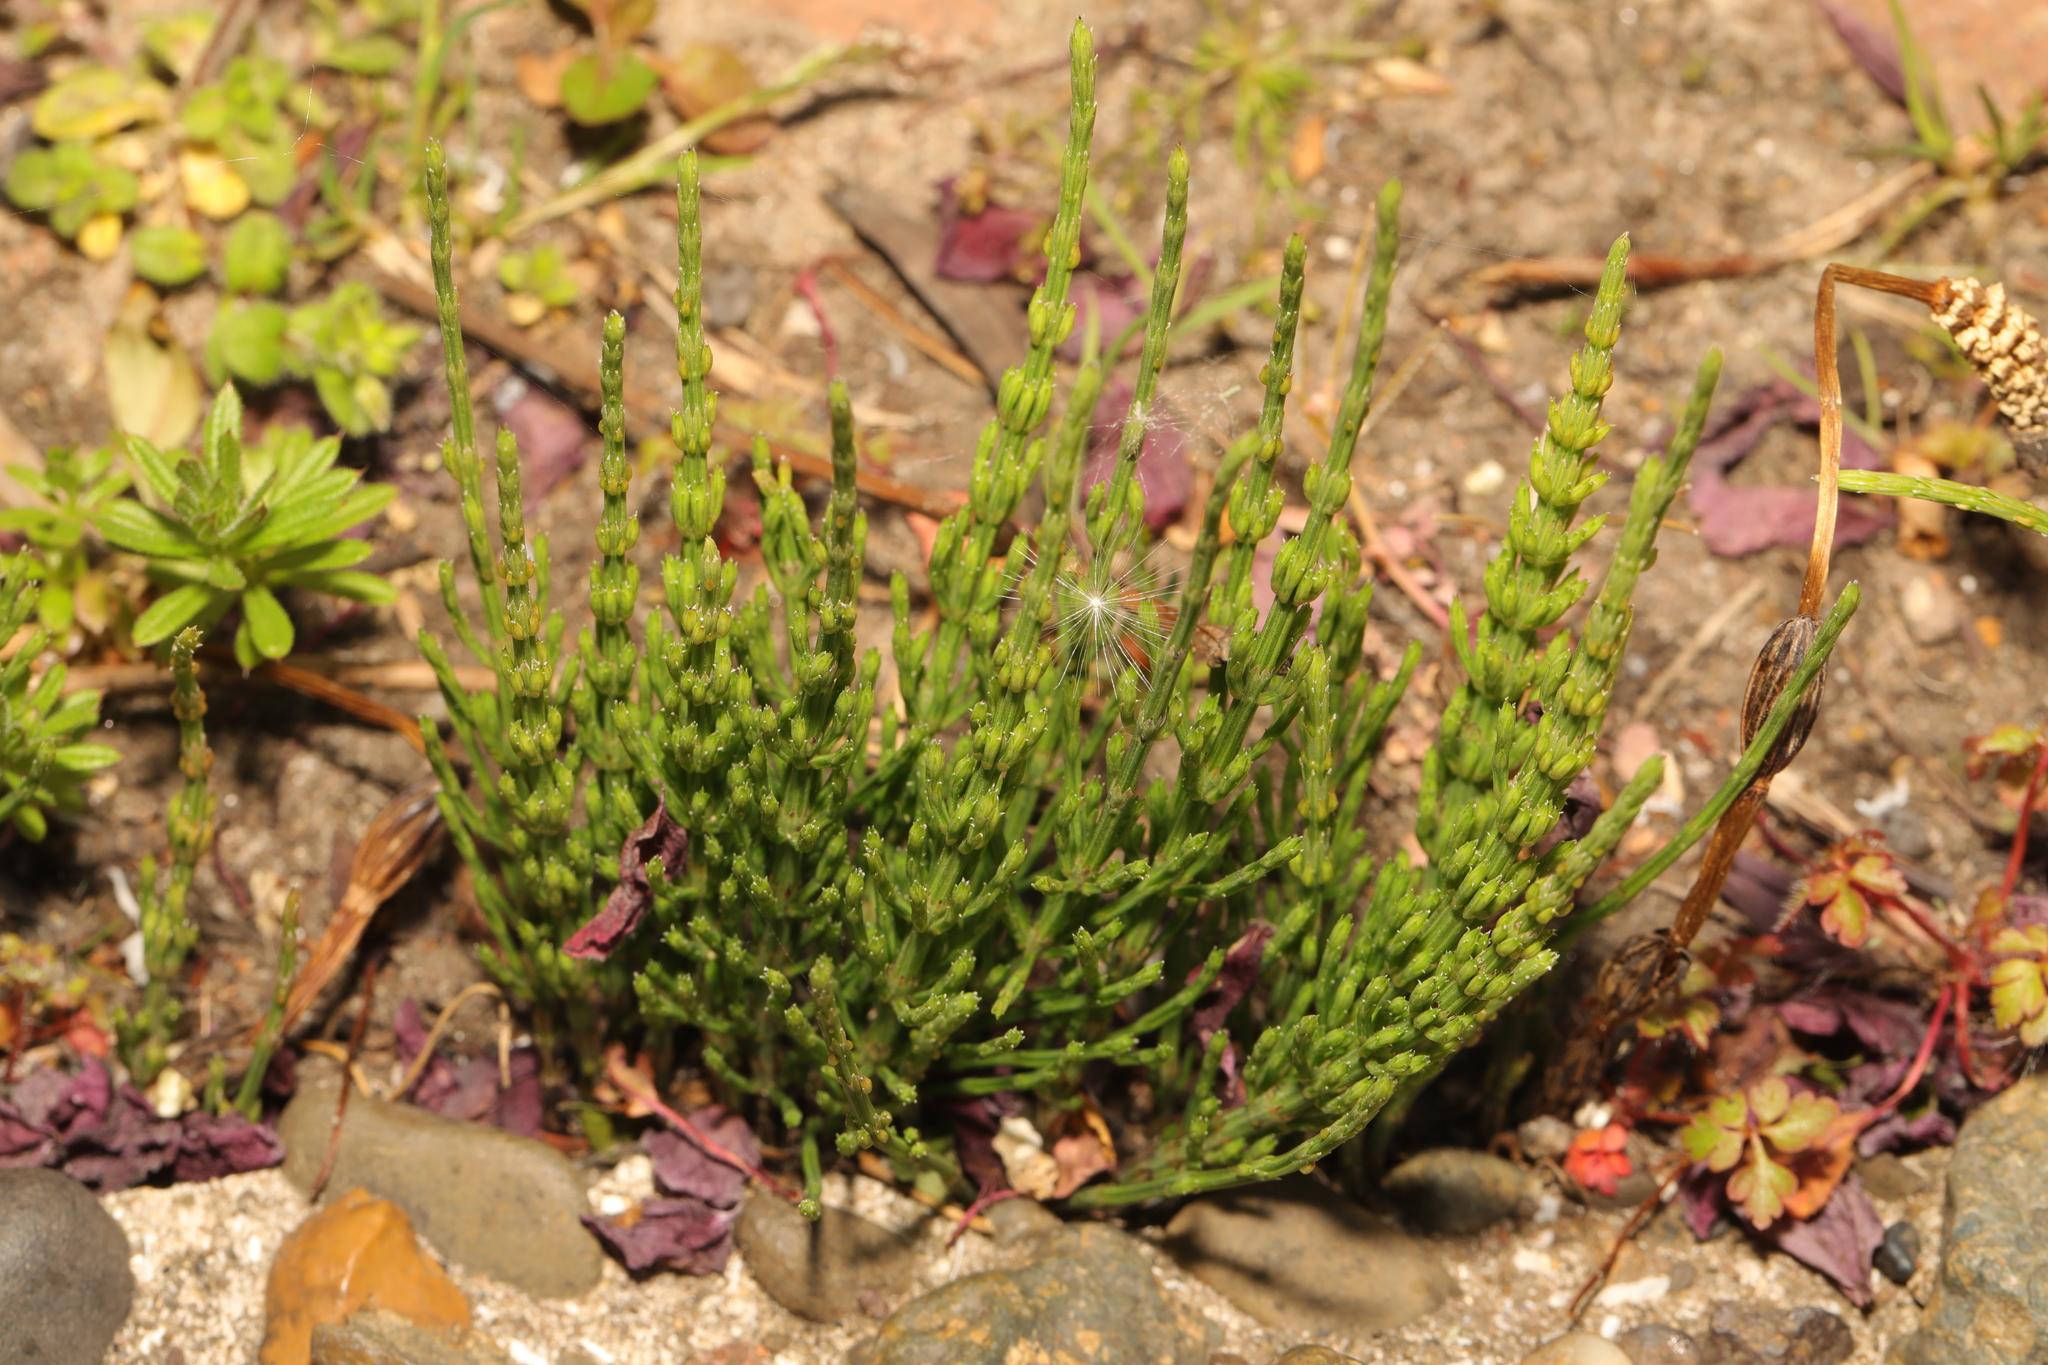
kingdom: Plantae
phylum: Tracheophyta
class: Polypodiopsida
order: Equisetales
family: Equisetaceae
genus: Equisetum
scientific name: Equisetum arvense
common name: Field horsetail
